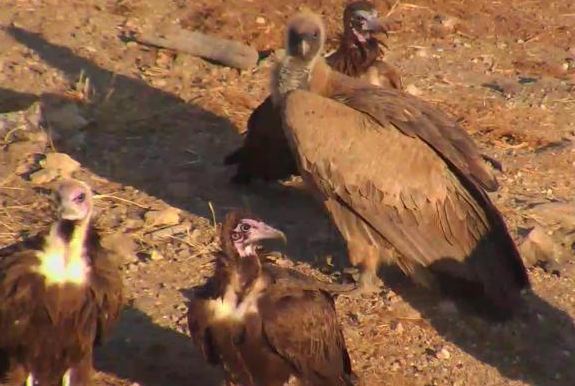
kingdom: Animalia
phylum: Chordata
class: Aves
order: Accipitriformes
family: Accipitridae
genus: Gyps
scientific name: Gyps africanus
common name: White-backed vulture
